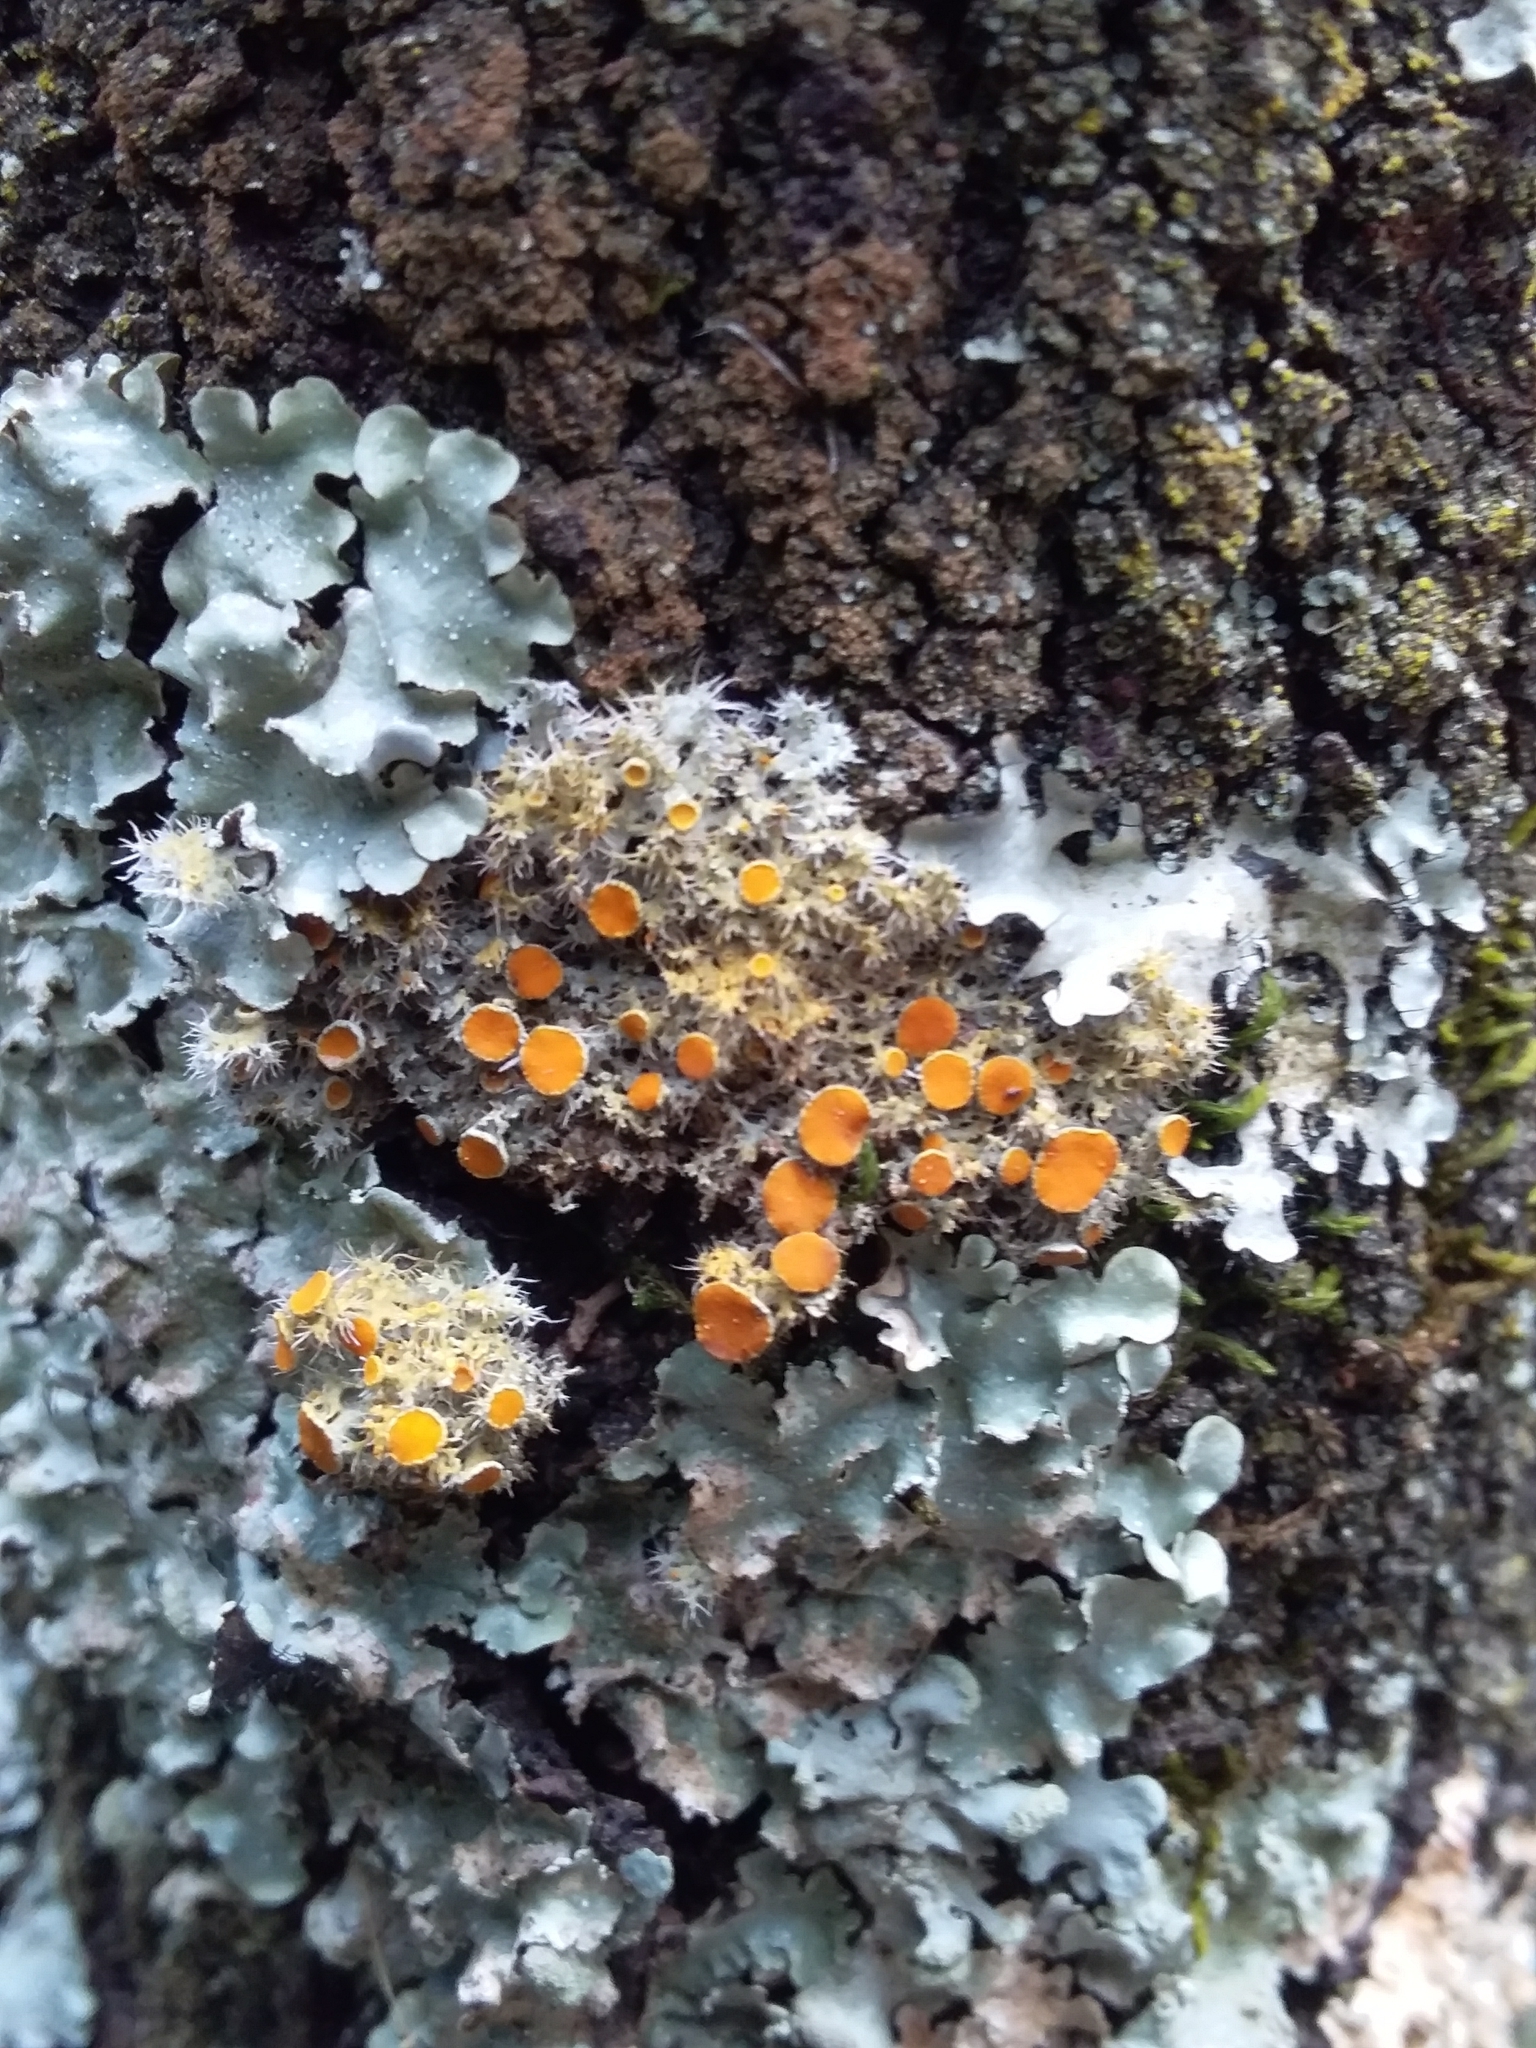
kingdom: Fungi
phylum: Ascomycota
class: Lecanoromycetes
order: Teloschistales
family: Teloschistaceae
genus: Niorma
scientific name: Niorma chrysophthalma
